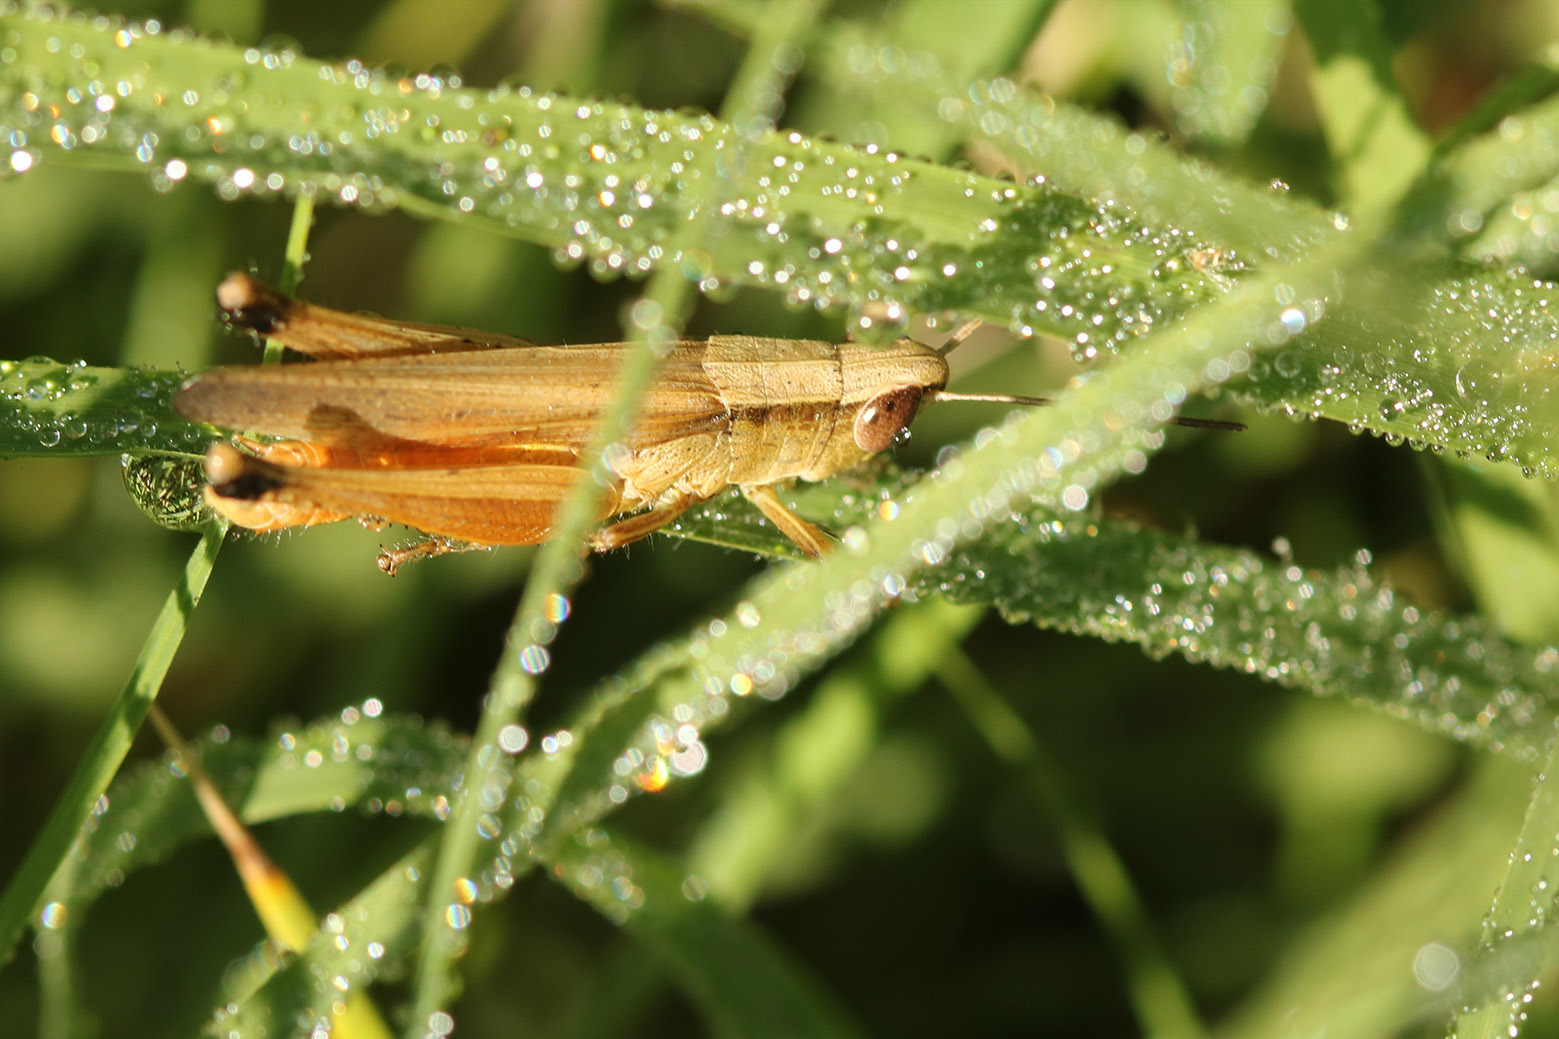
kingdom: Animalia
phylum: Arthropoda
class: Insecta
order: Orthoptera
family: Acrididae
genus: Amblytropidia
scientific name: Amblytropidia australis
